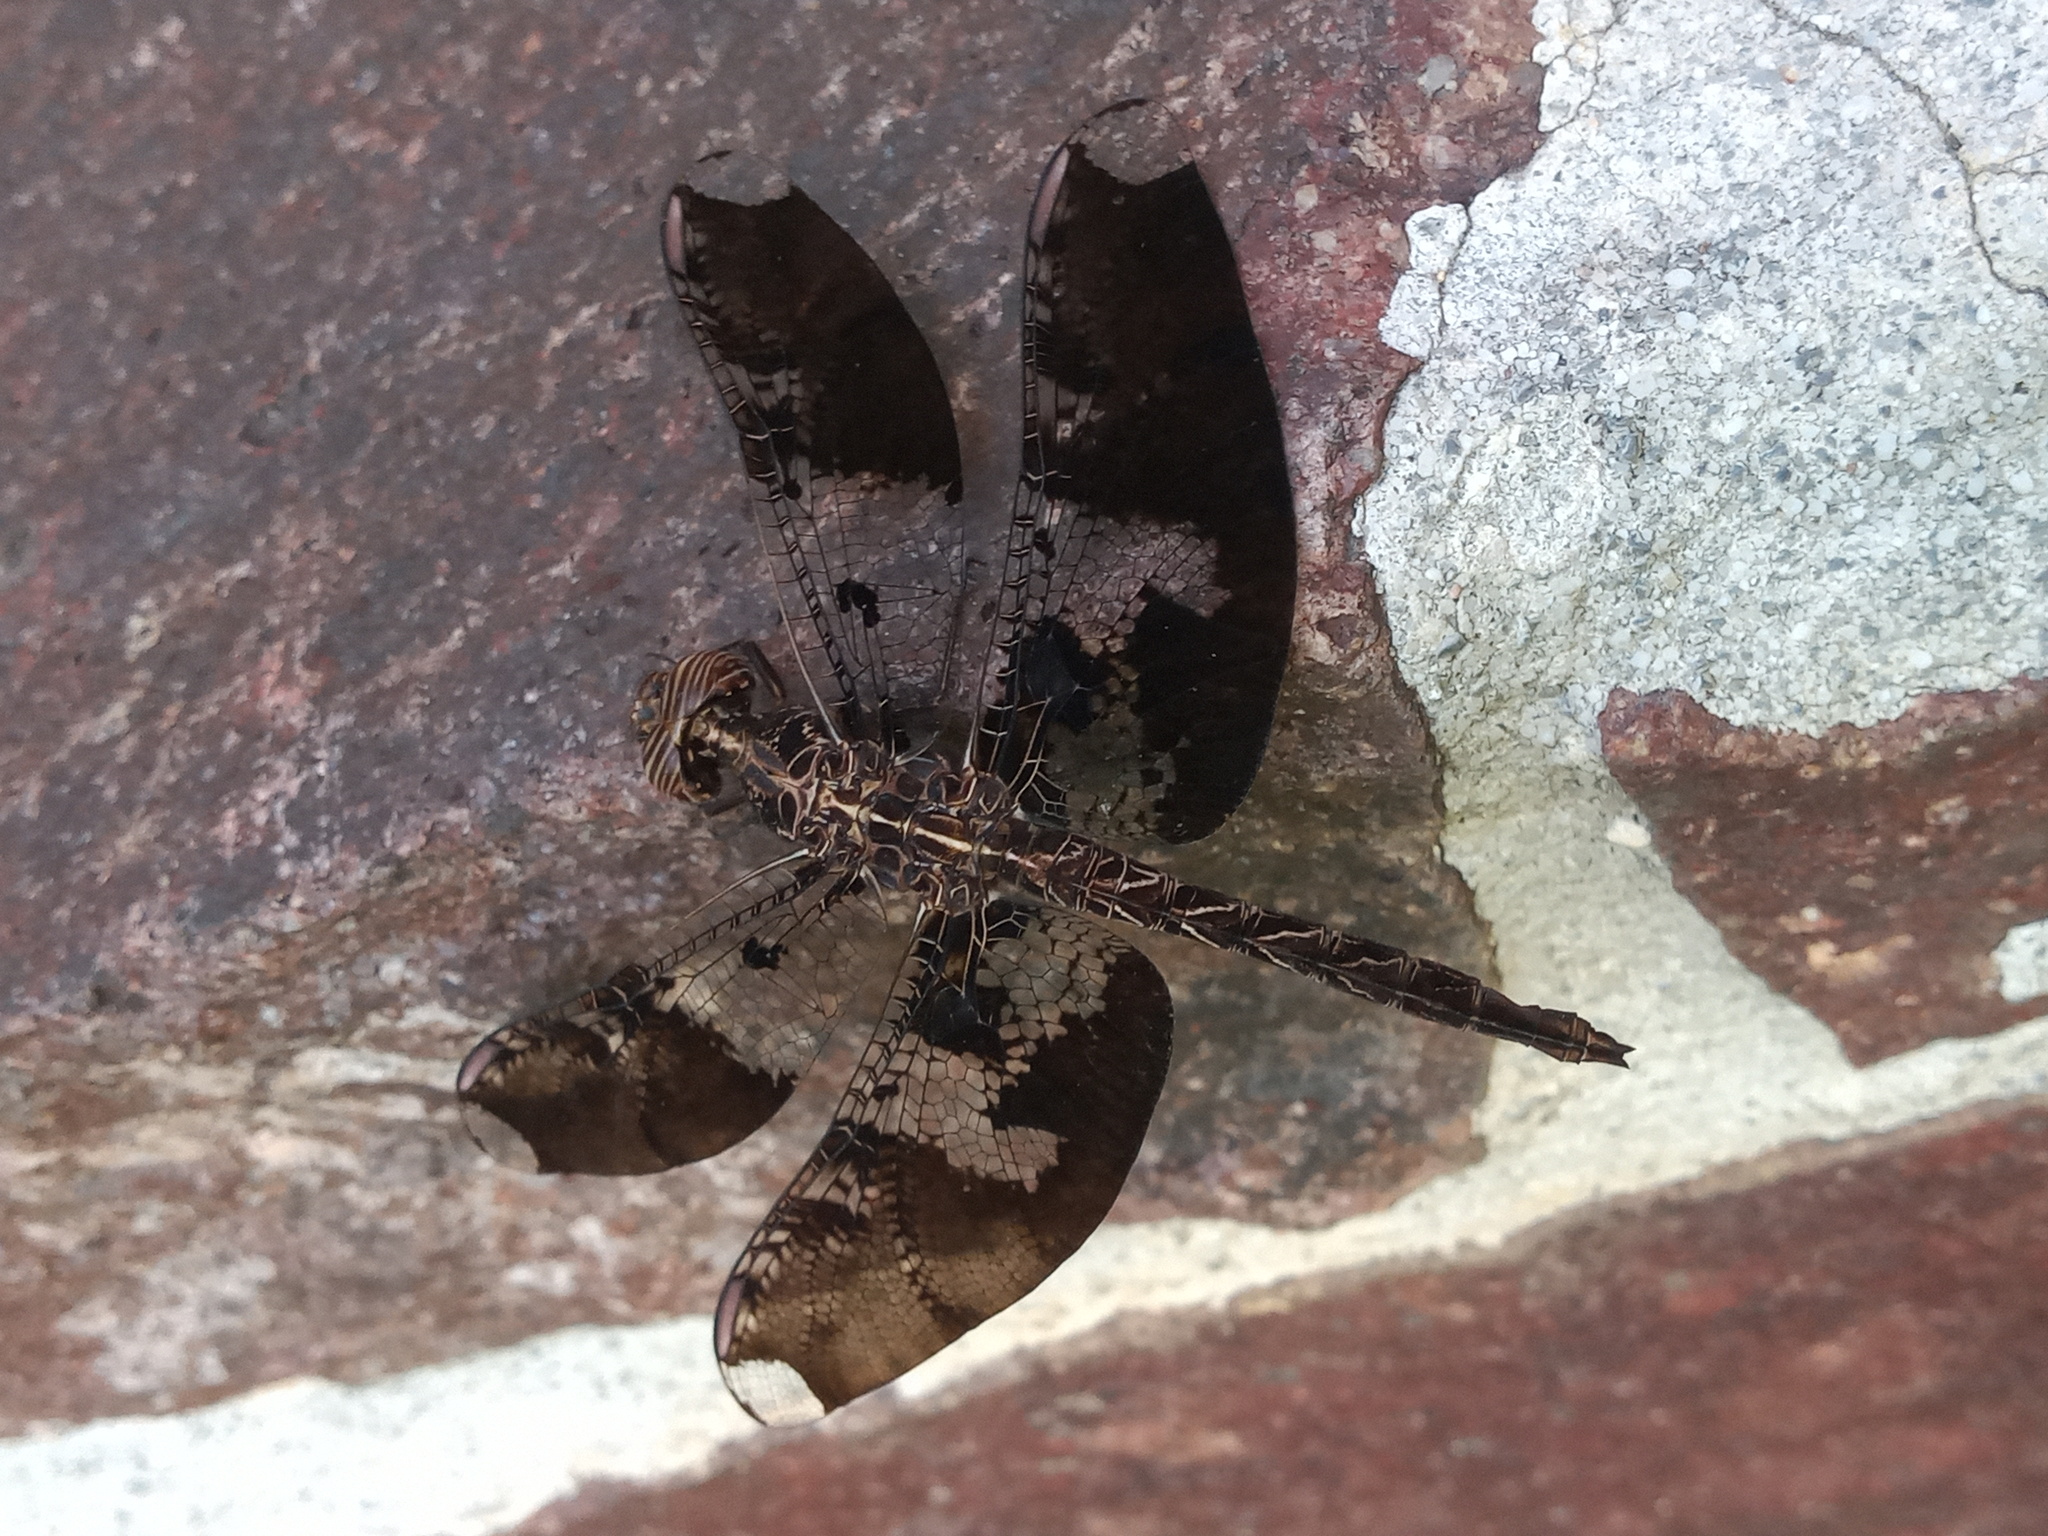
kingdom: Animalia
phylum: Arthropoda
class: Insecta
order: Odonata
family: Libellulidae
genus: Pseudoleon
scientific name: Pseudoleon superbus
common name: Filigree skimmer
